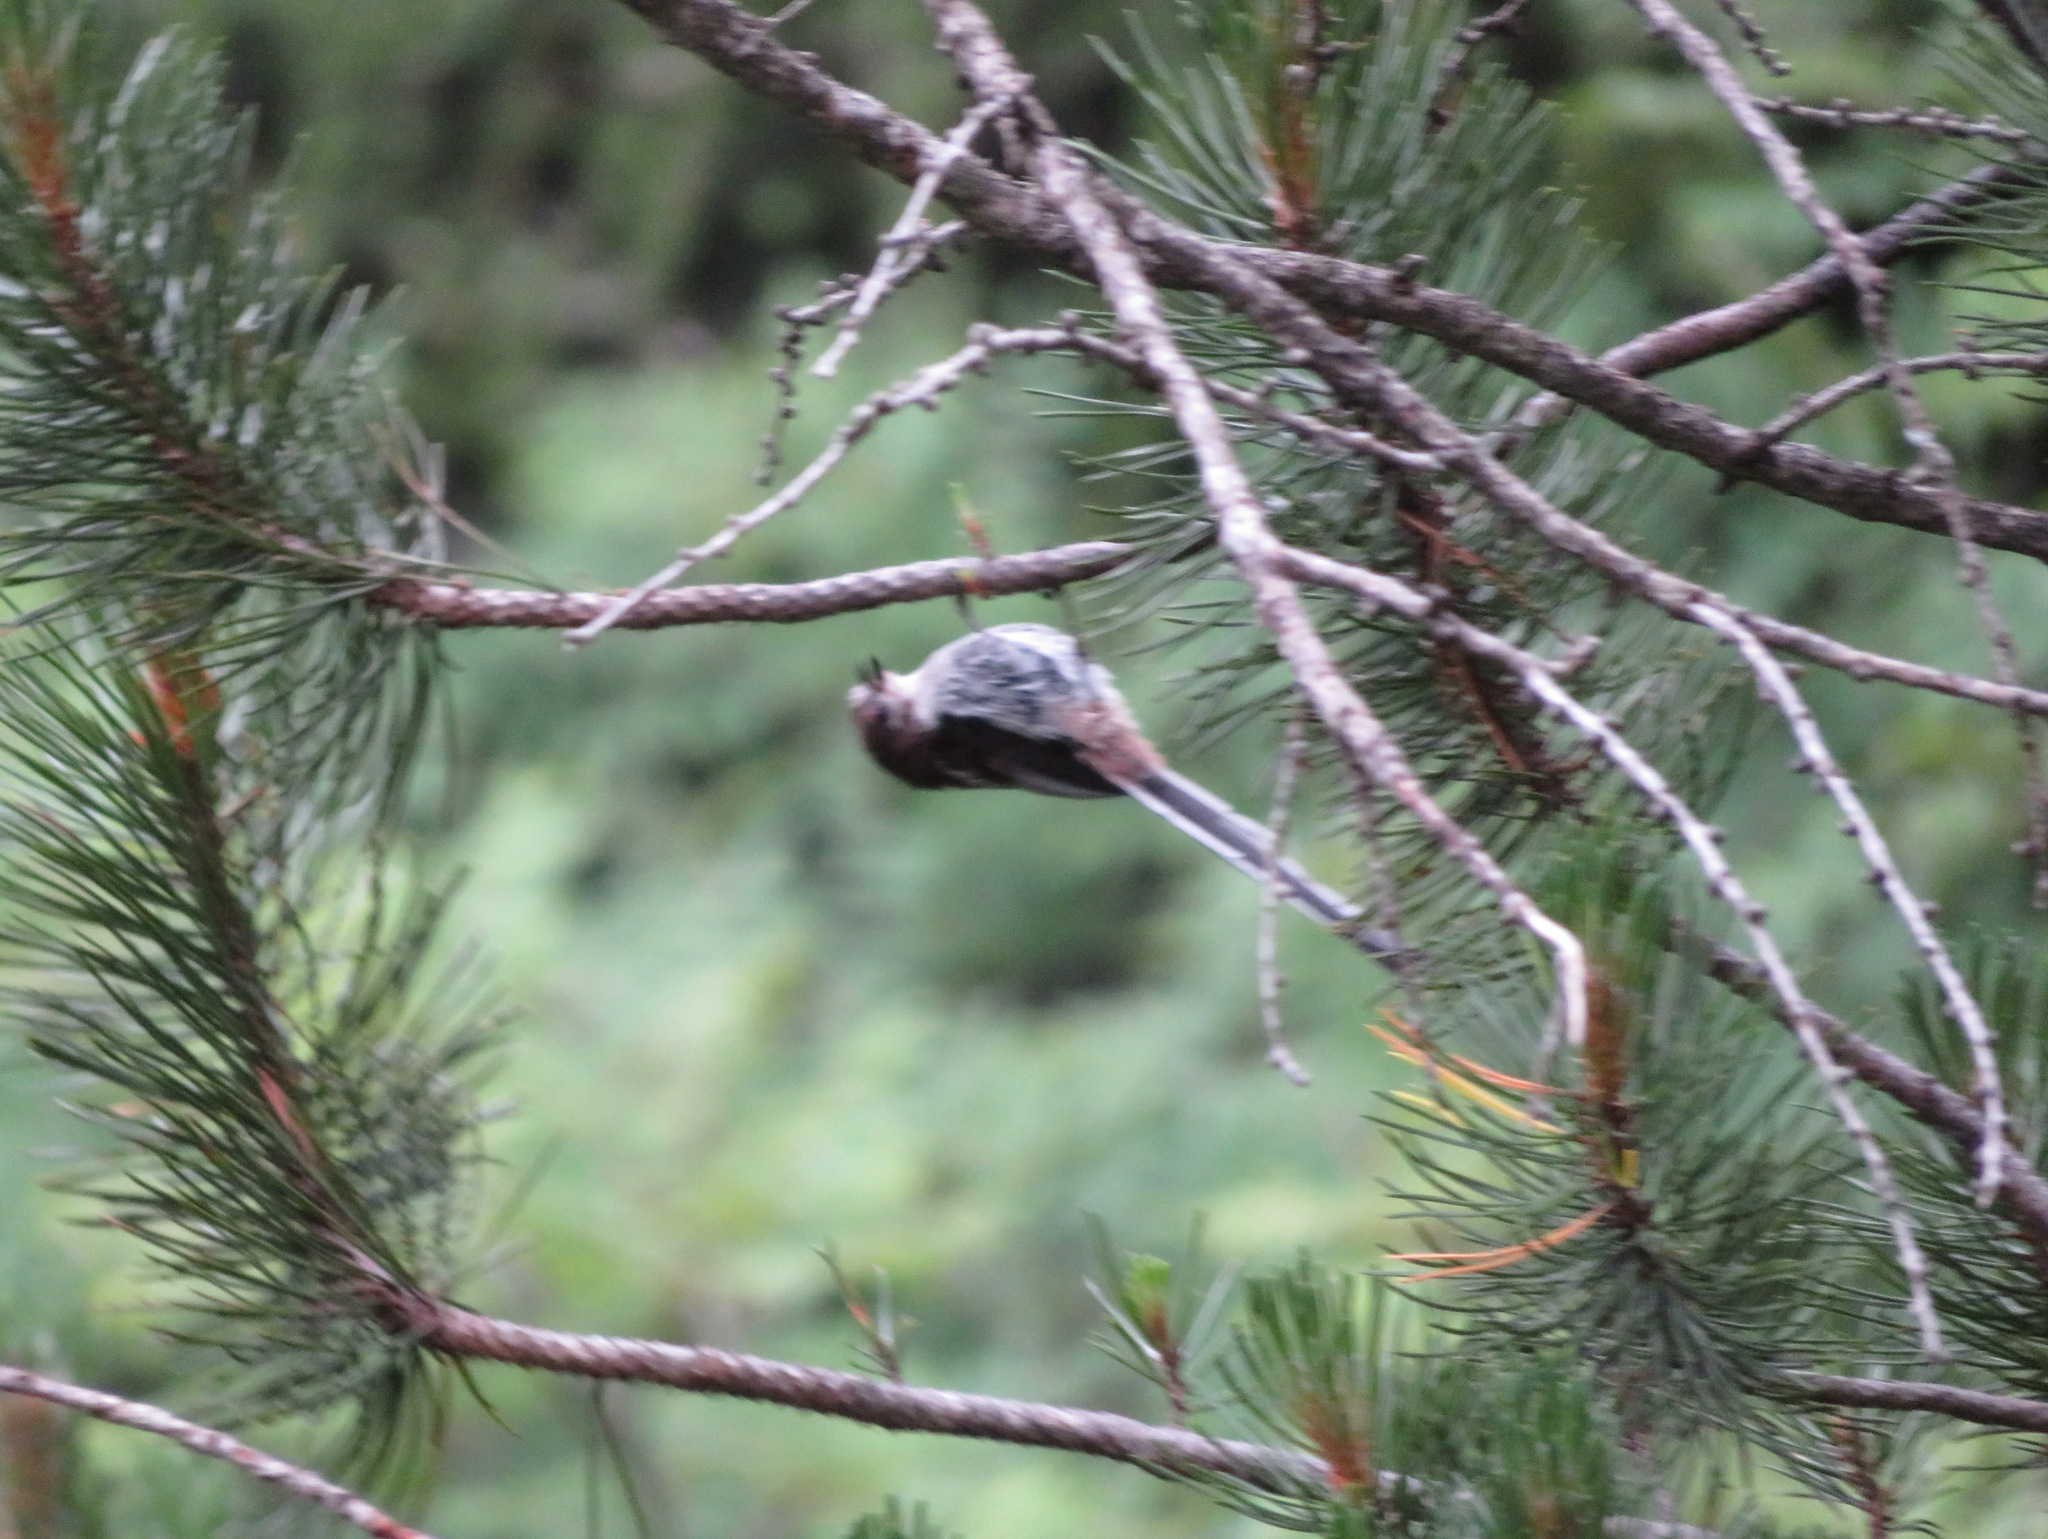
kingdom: Animalia
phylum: Chordata
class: Aves
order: Passeriformes
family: Aegithalidae
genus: Aegithalos
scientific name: Aegithalos caudatus
